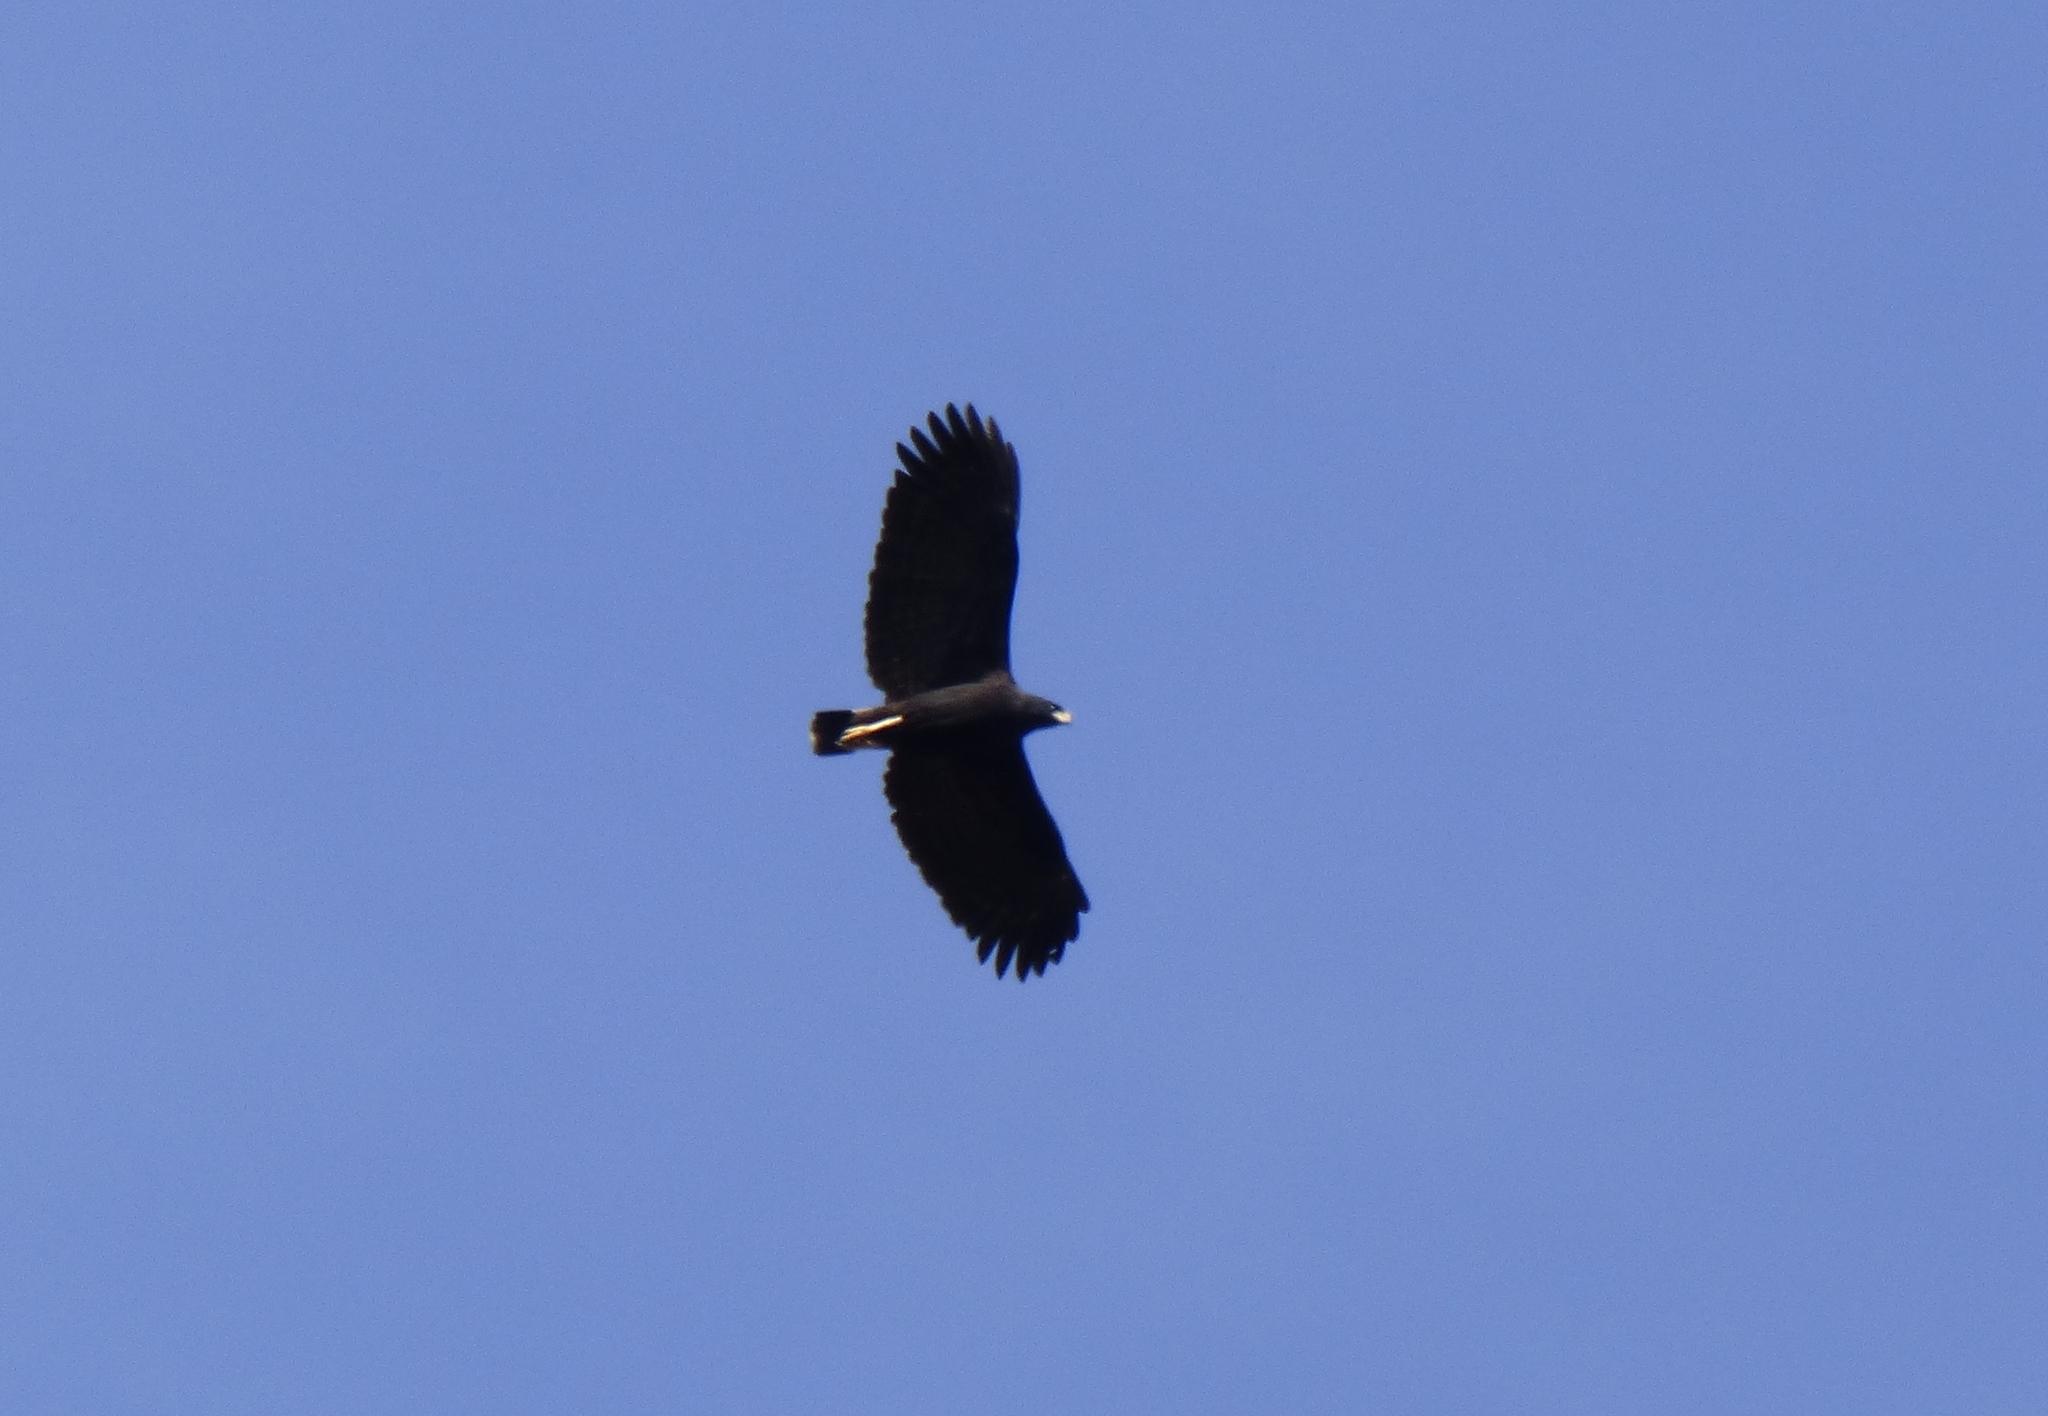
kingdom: Animalia
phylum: Chordata
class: Aves
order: Accipitriformes
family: Accipitridae
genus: Buteogallus
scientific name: Buteogallus urubitinga
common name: Great black hawk
